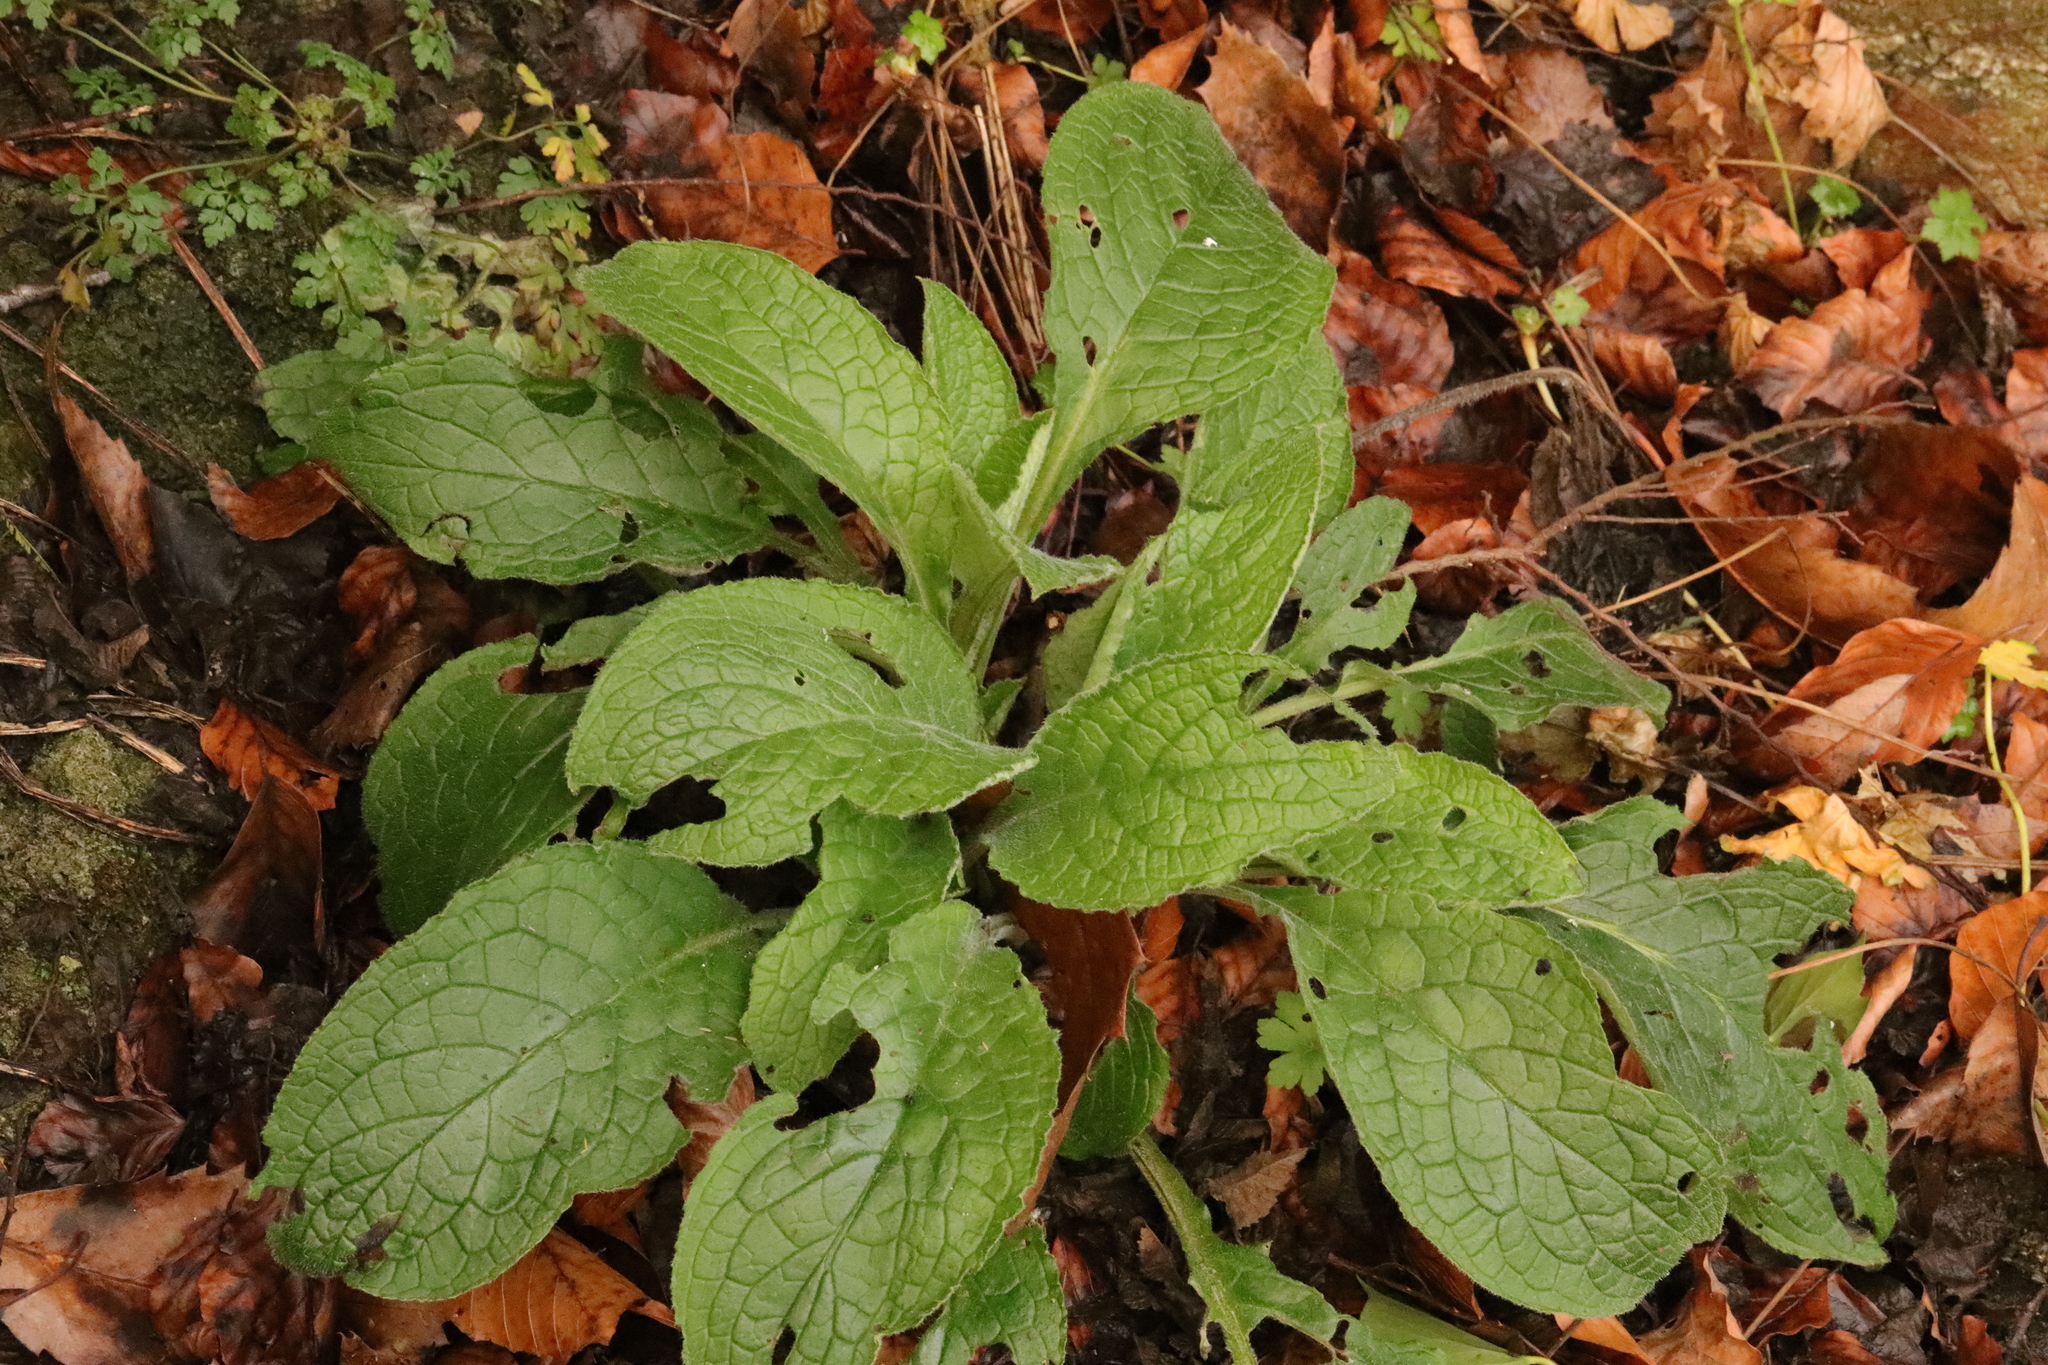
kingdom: Plantae
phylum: Tracheophyta
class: Magnoliopsida
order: Lamiales
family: Plantaginaceae
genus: Digitalis
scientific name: Digitalis purpurea
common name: Foxglove
